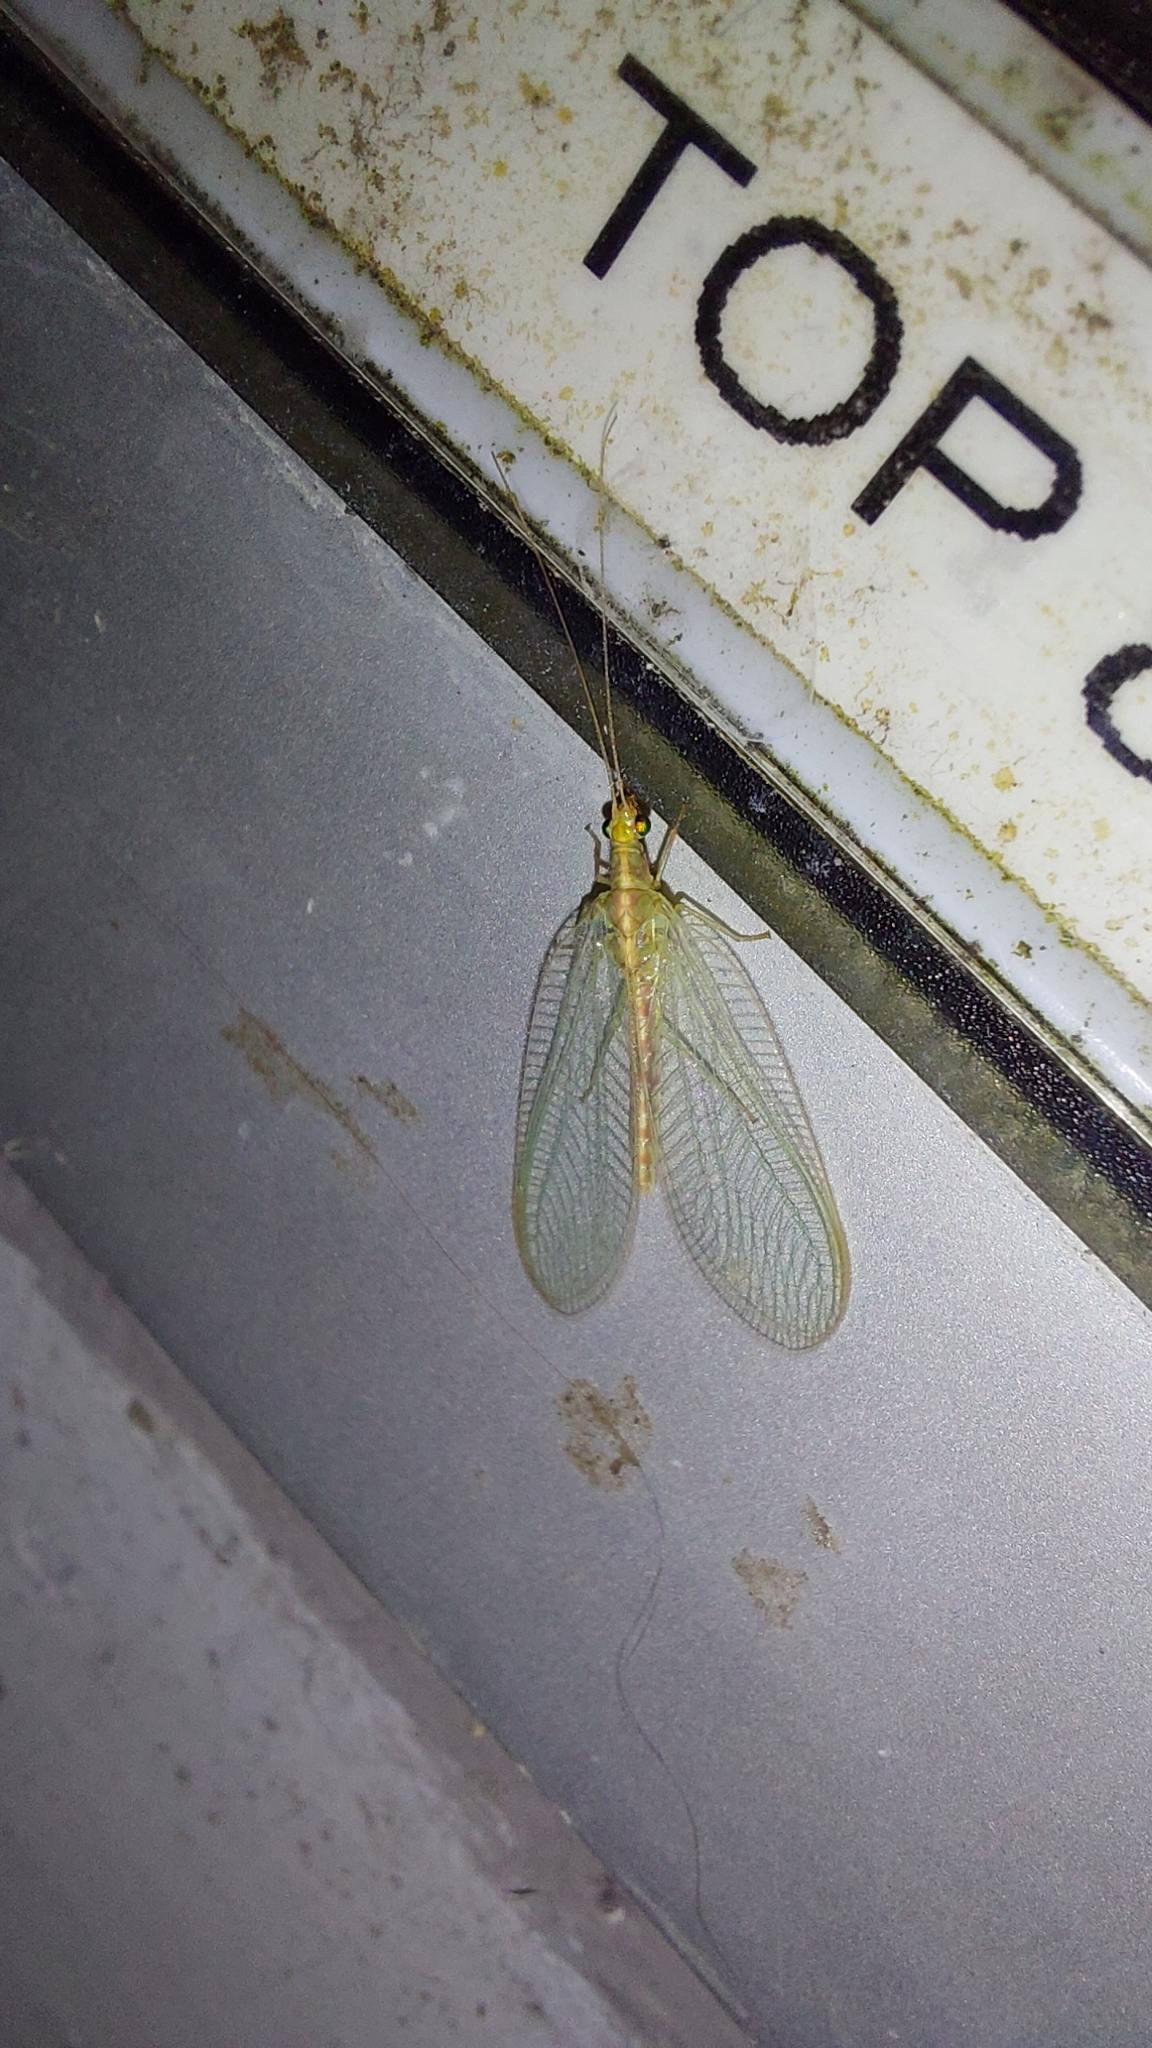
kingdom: Animalia
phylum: Arthropoda
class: Insecta
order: Neuroptera
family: Chrysopidae
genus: Chrysoperla
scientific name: Chrysoperla
